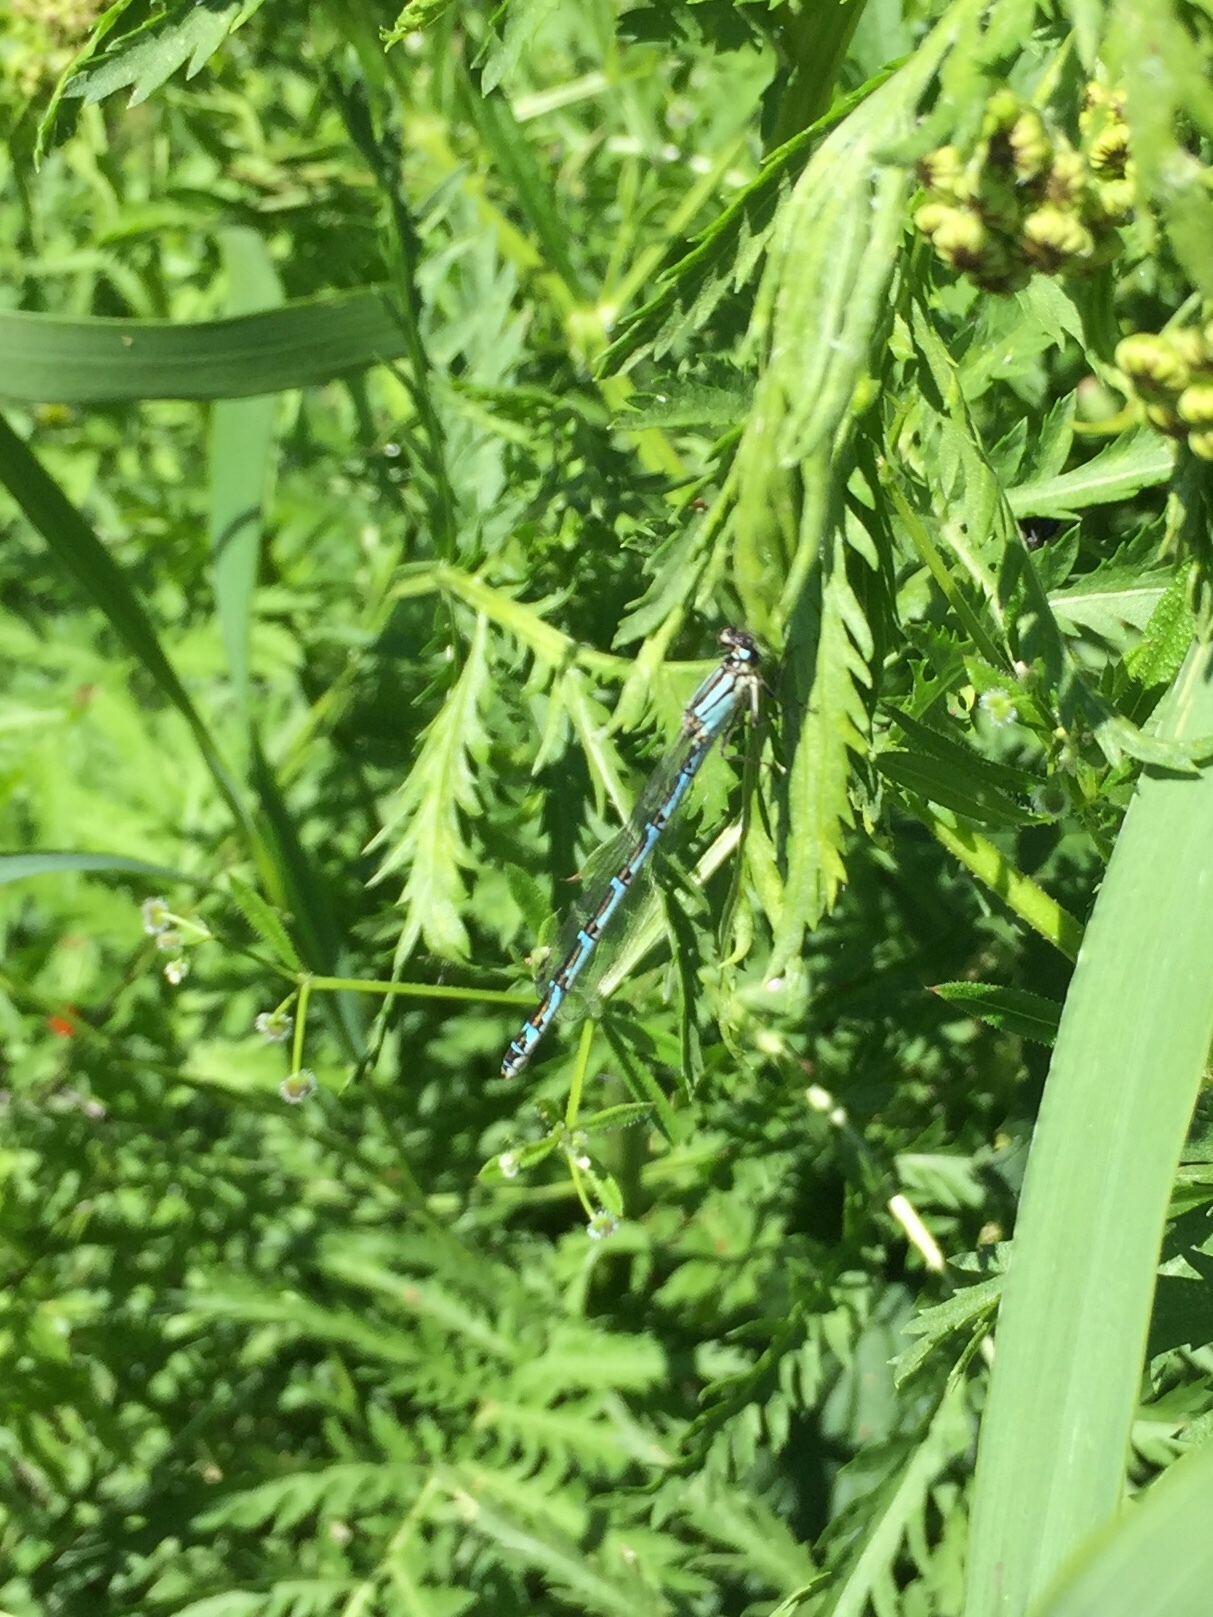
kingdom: Animalia
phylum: Arthropoda
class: Insecta
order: Odonata
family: Coenagrionidae
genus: Enallagma
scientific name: Enallagma cyathigerum
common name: Common blue damselfly
